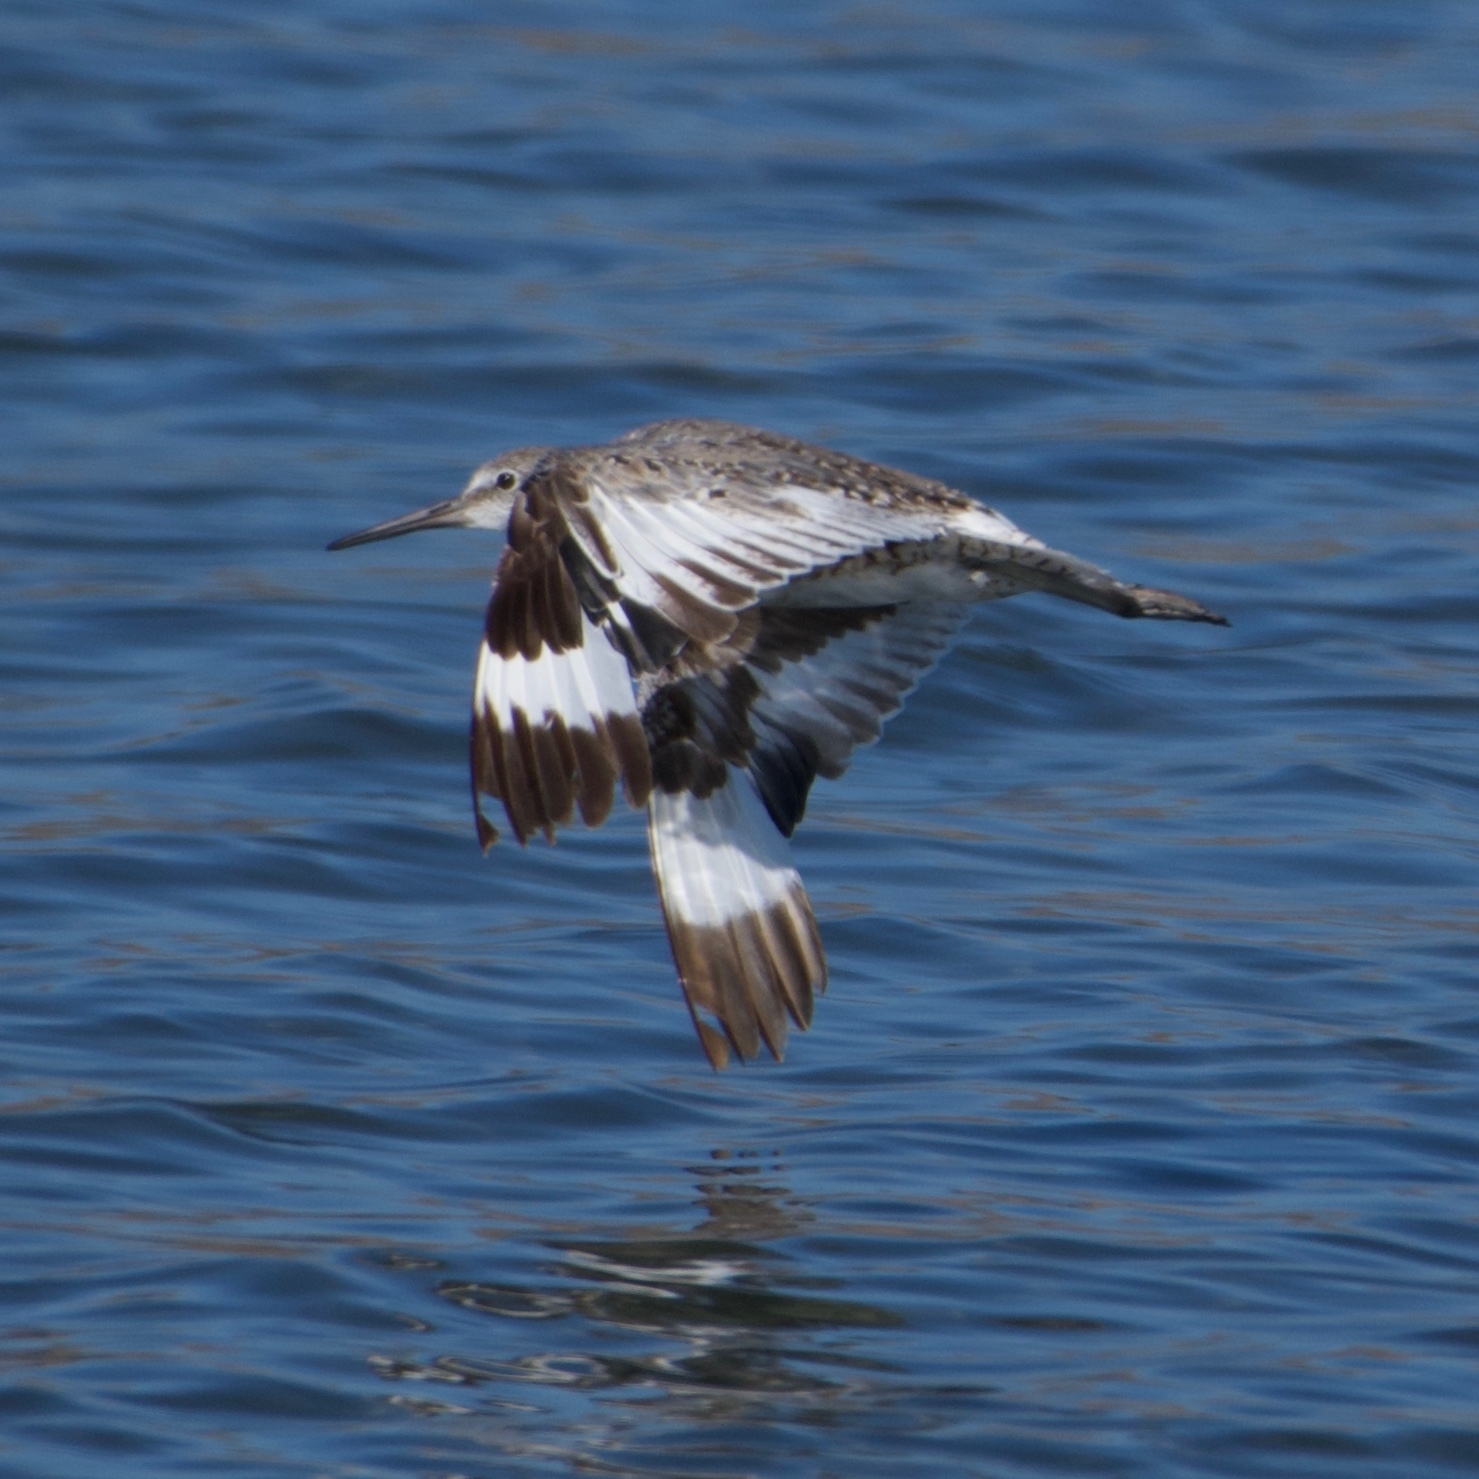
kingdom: Animalia
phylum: Chordata
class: Aves
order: Charadriiformes
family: Scolopacidae
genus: Tringa
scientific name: Tringa semipalmata
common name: Willet
